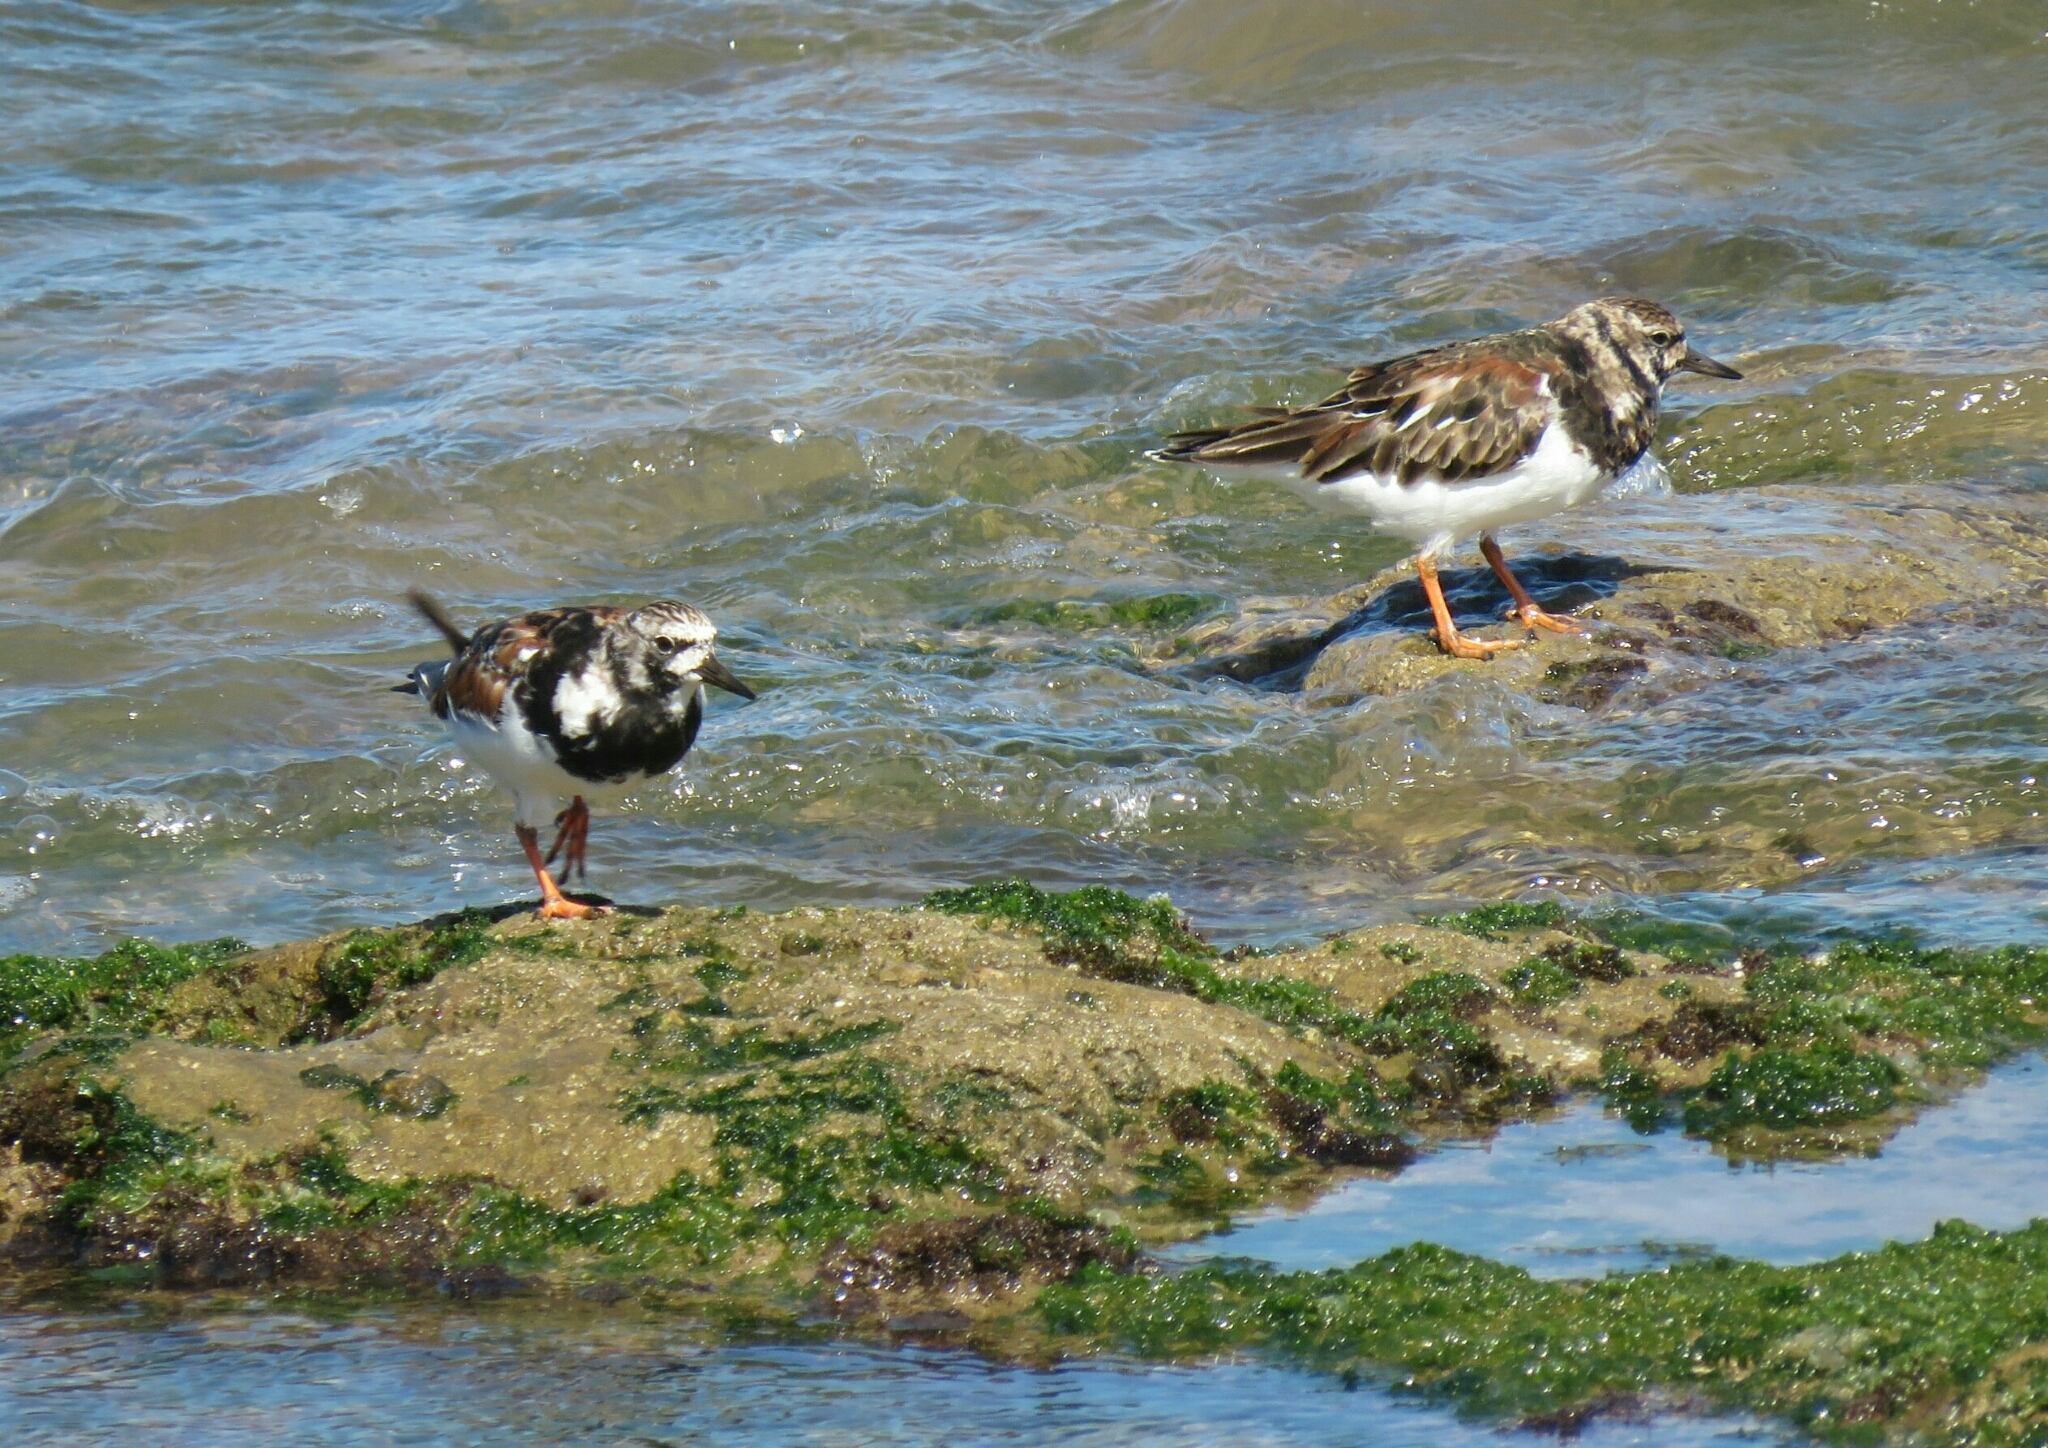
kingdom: Animalia
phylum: Chordata
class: Aves
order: Charadriiformes
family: Scolopacidae
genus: Arenaria
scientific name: Arenaria interpres
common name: Ruddy turnstone
